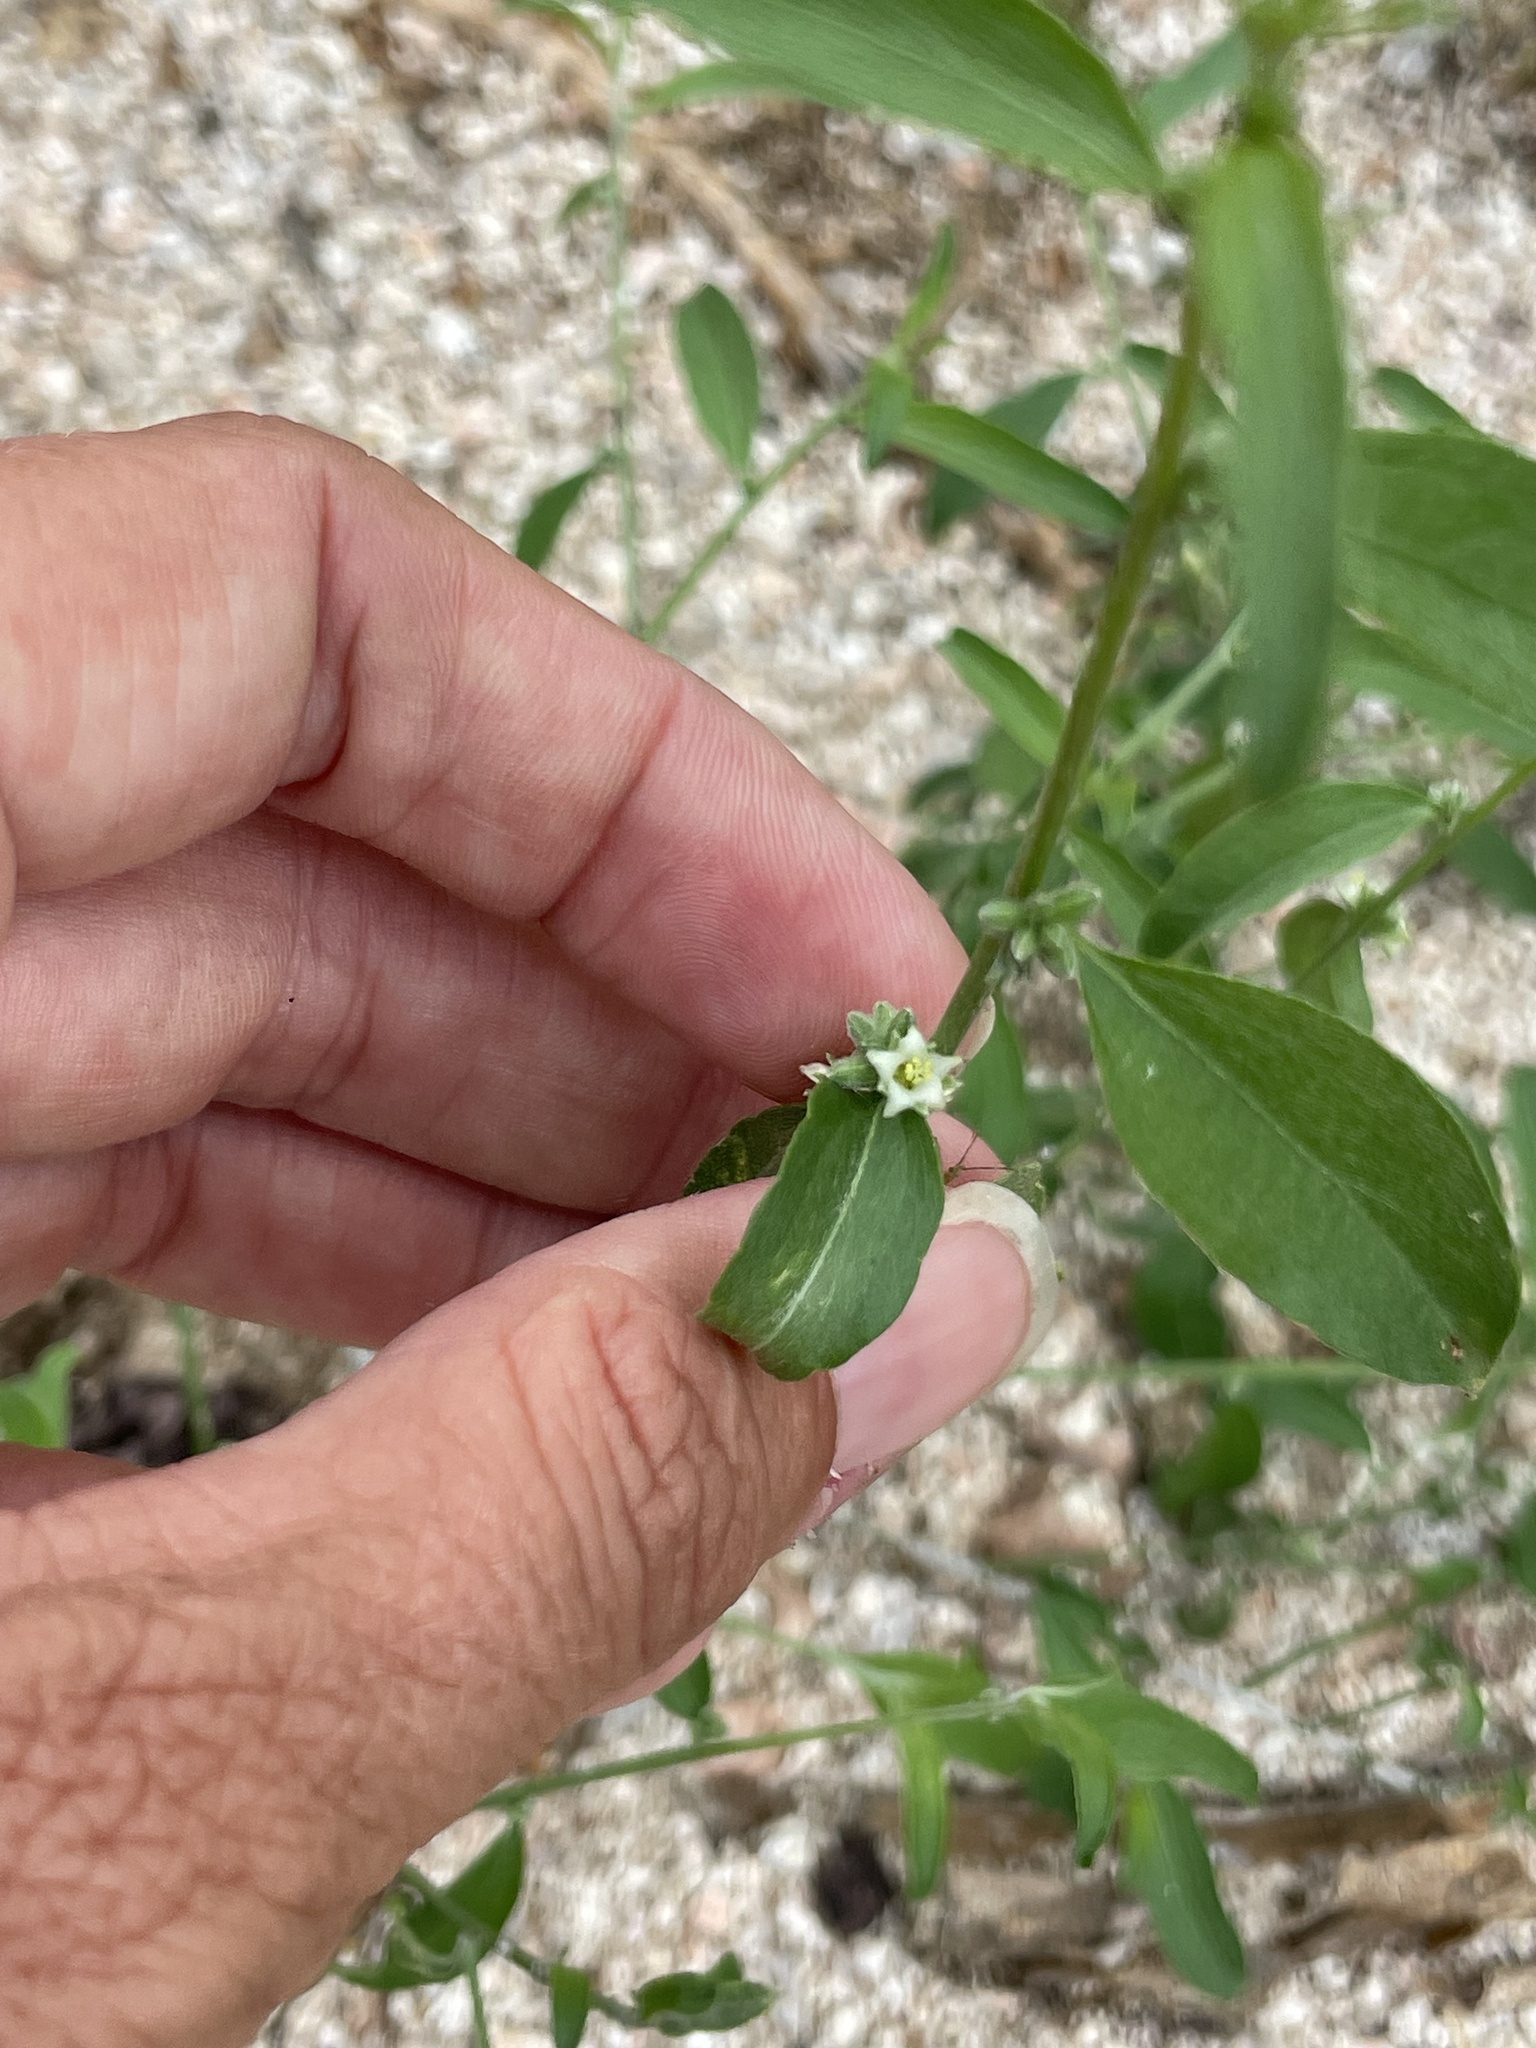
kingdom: Plantae
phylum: Tracheophyta
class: Magnoliopsida
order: Malpighiales
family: Euphorbiaceae
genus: Ditaxis
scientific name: Ditaxis lanceolata
